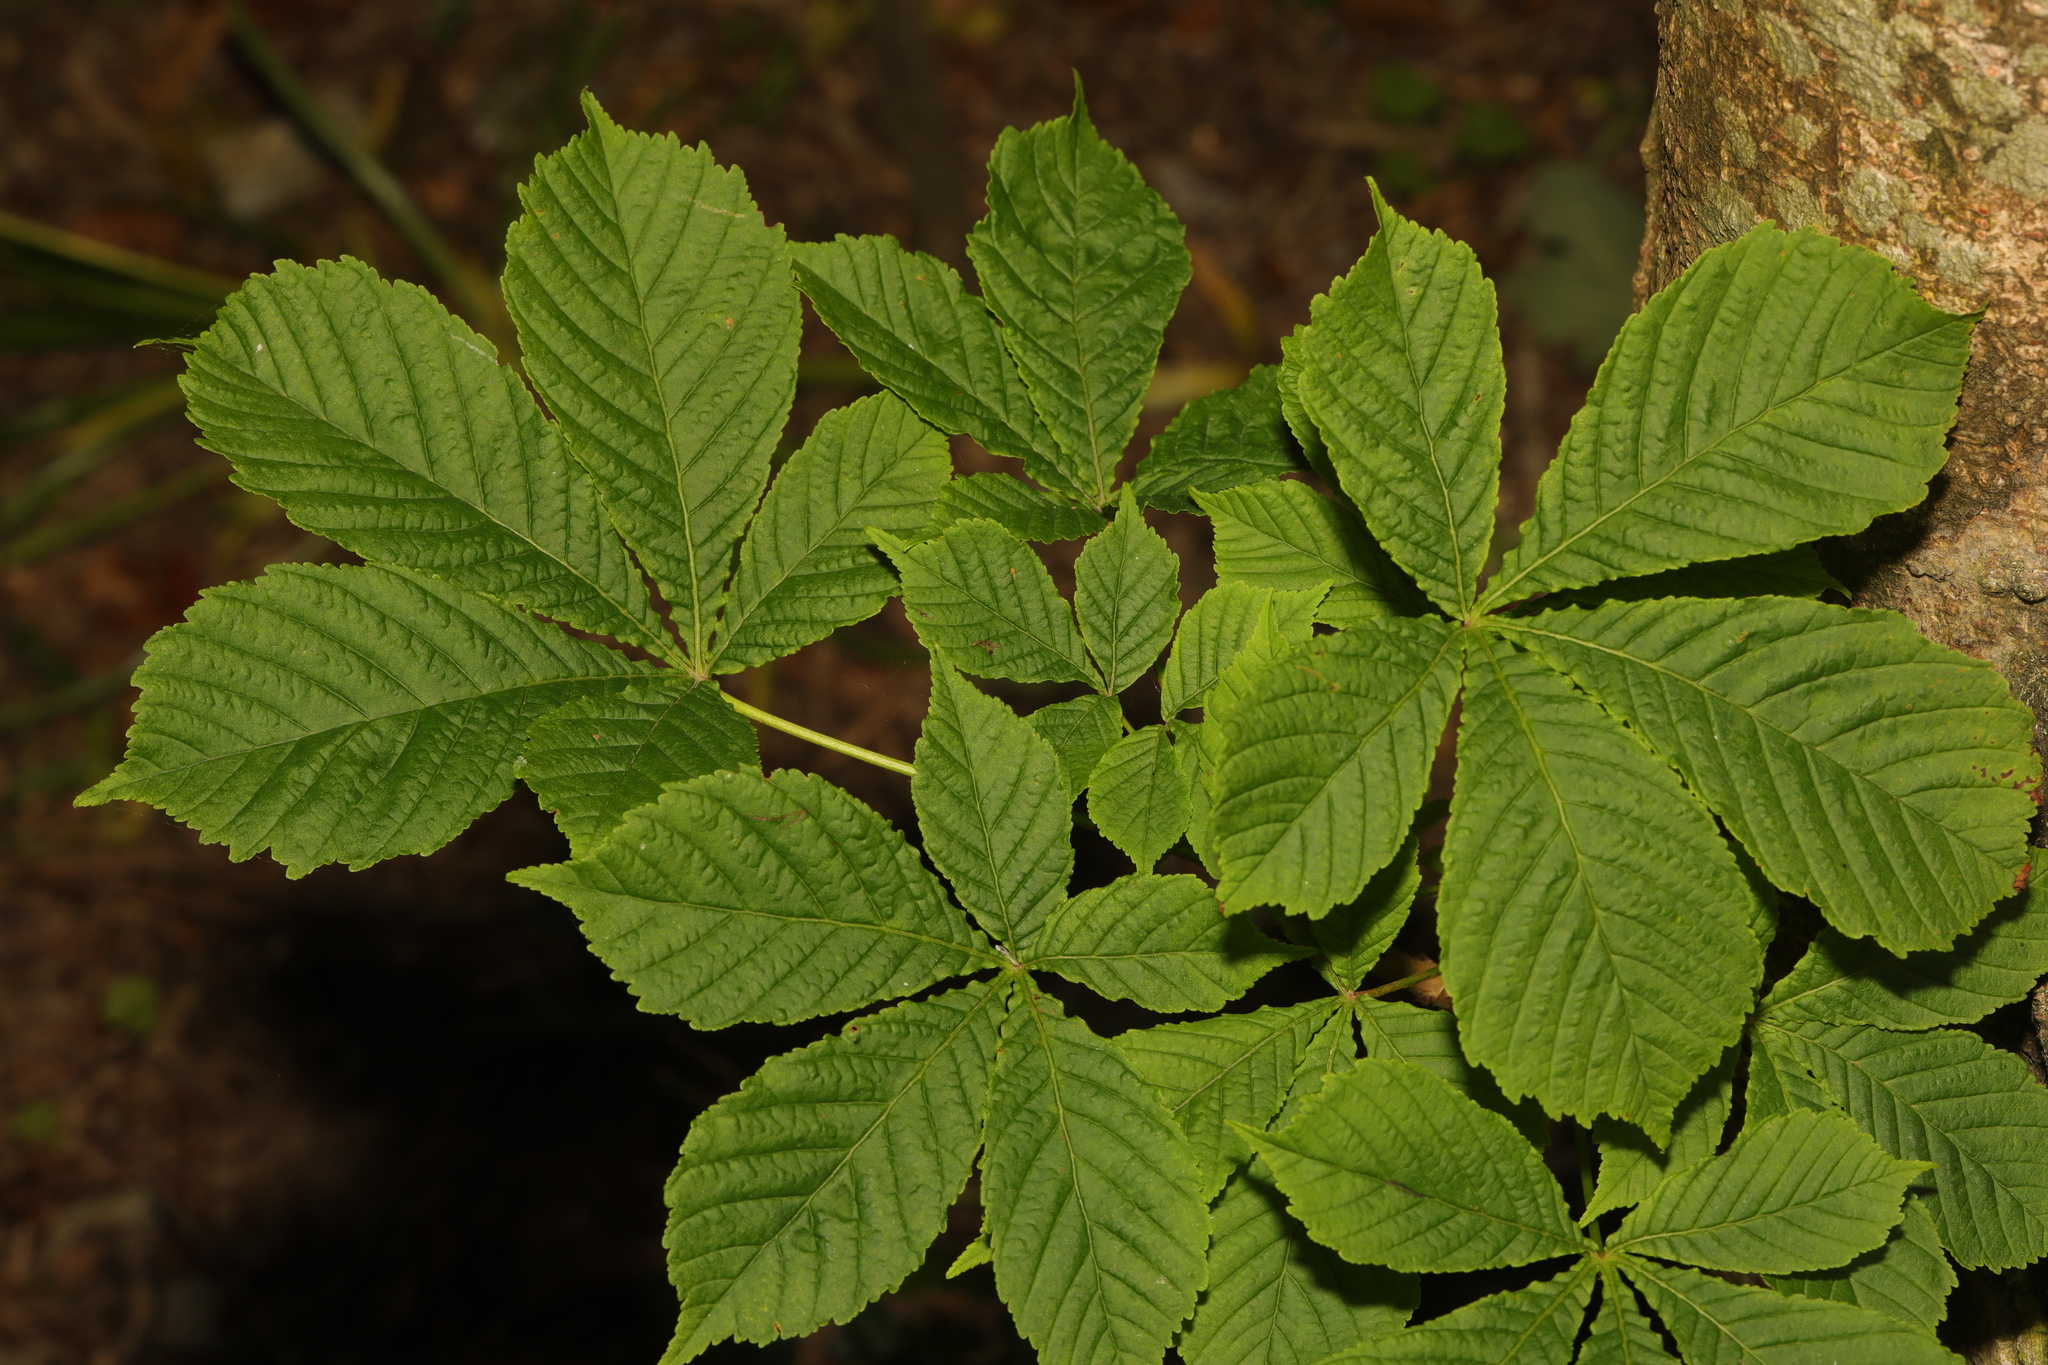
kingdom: Plantae
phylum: Tracheophyta
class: Magnoliopsida
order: Sapindales
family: Sapindaceae
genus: Aesculus
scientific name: Aesculus hippocastanum
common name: Horse-chestnut
